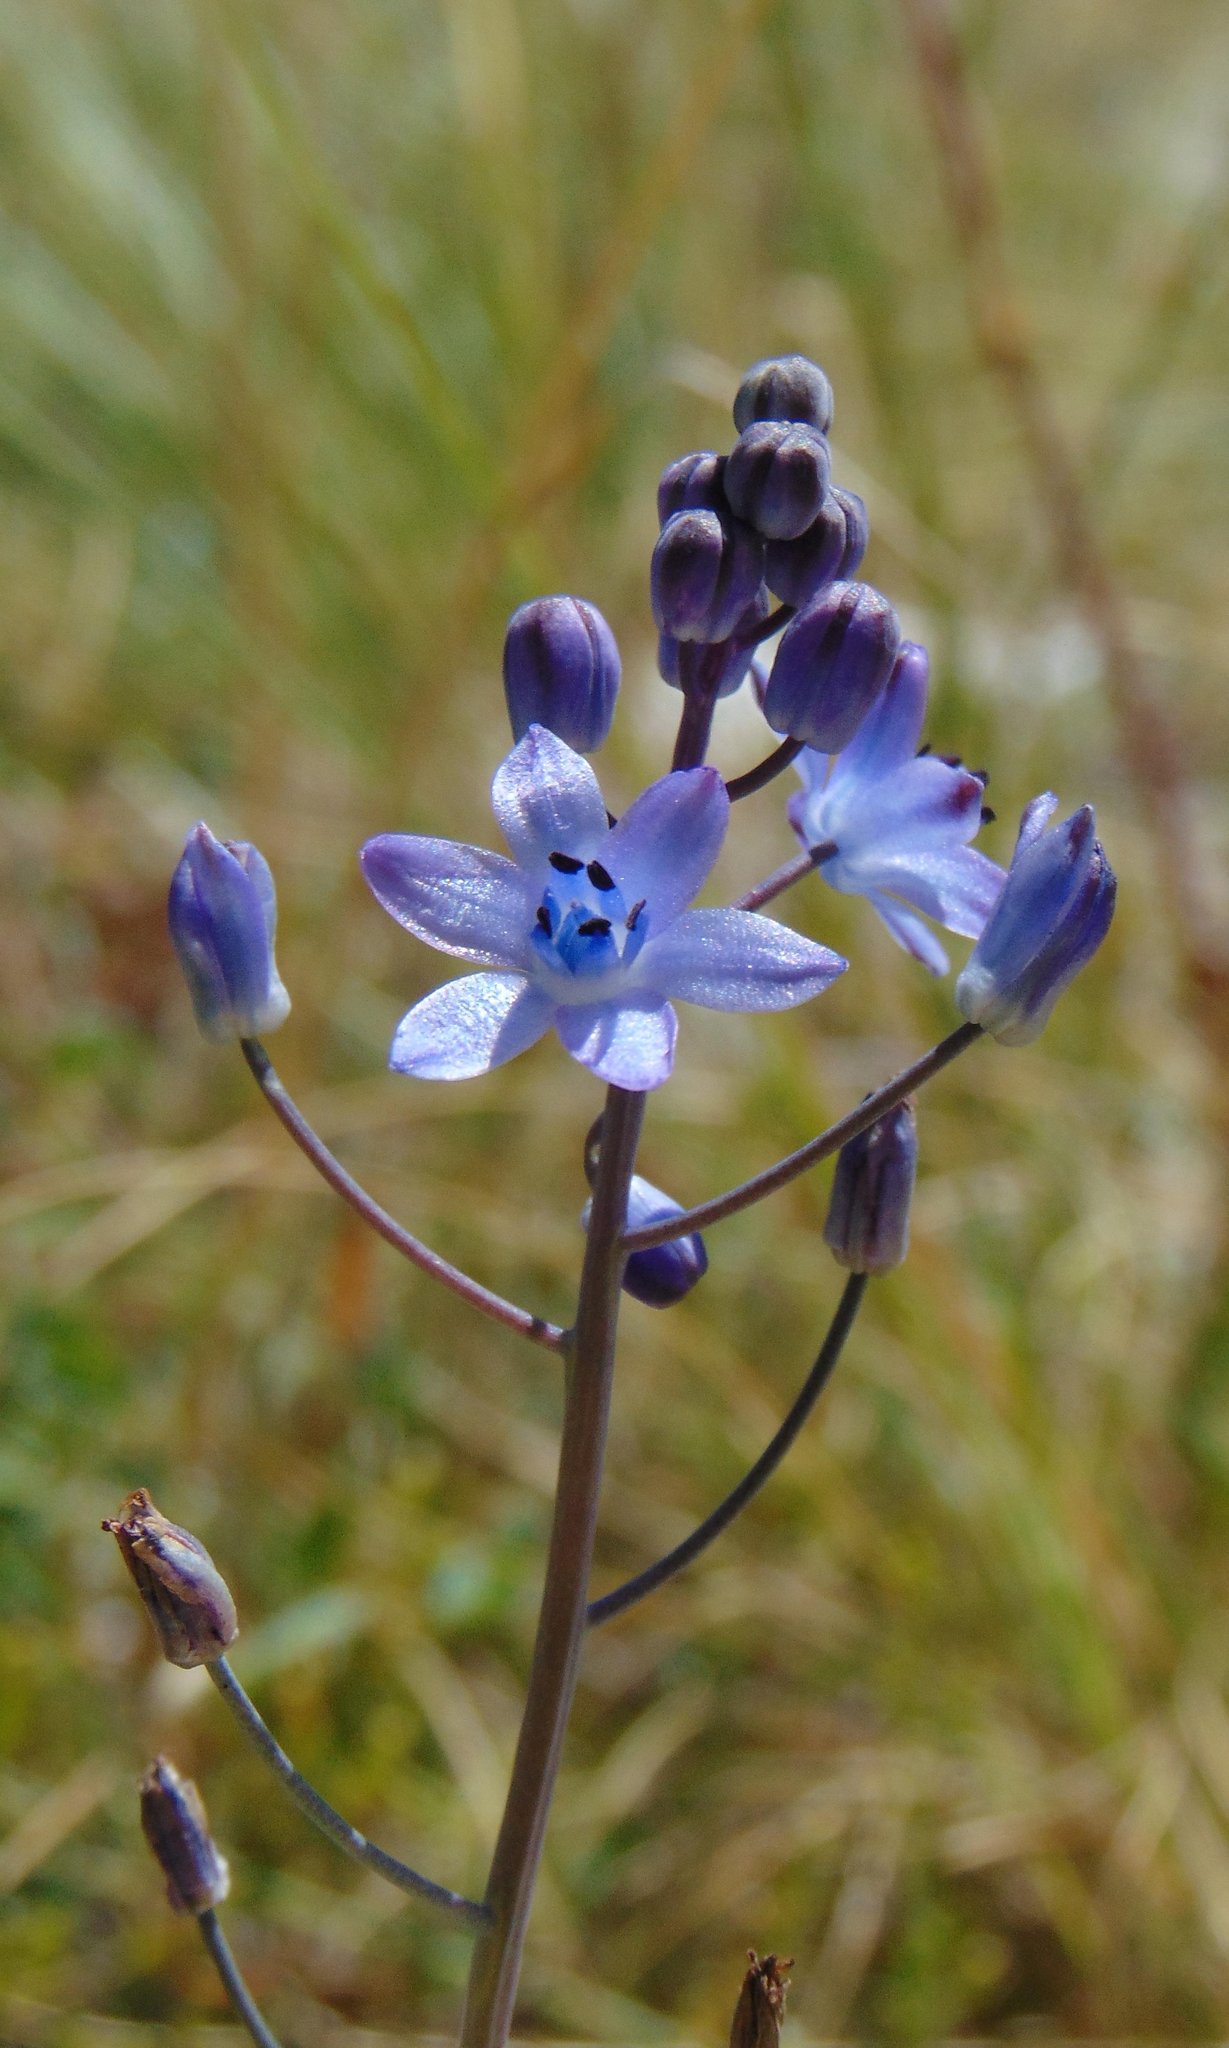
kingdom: Plantae
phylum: Tracheophyta
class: Liliopsida
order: Asparagales
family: Asparagaceae
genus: Prospero
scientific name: Prospero autumnale
